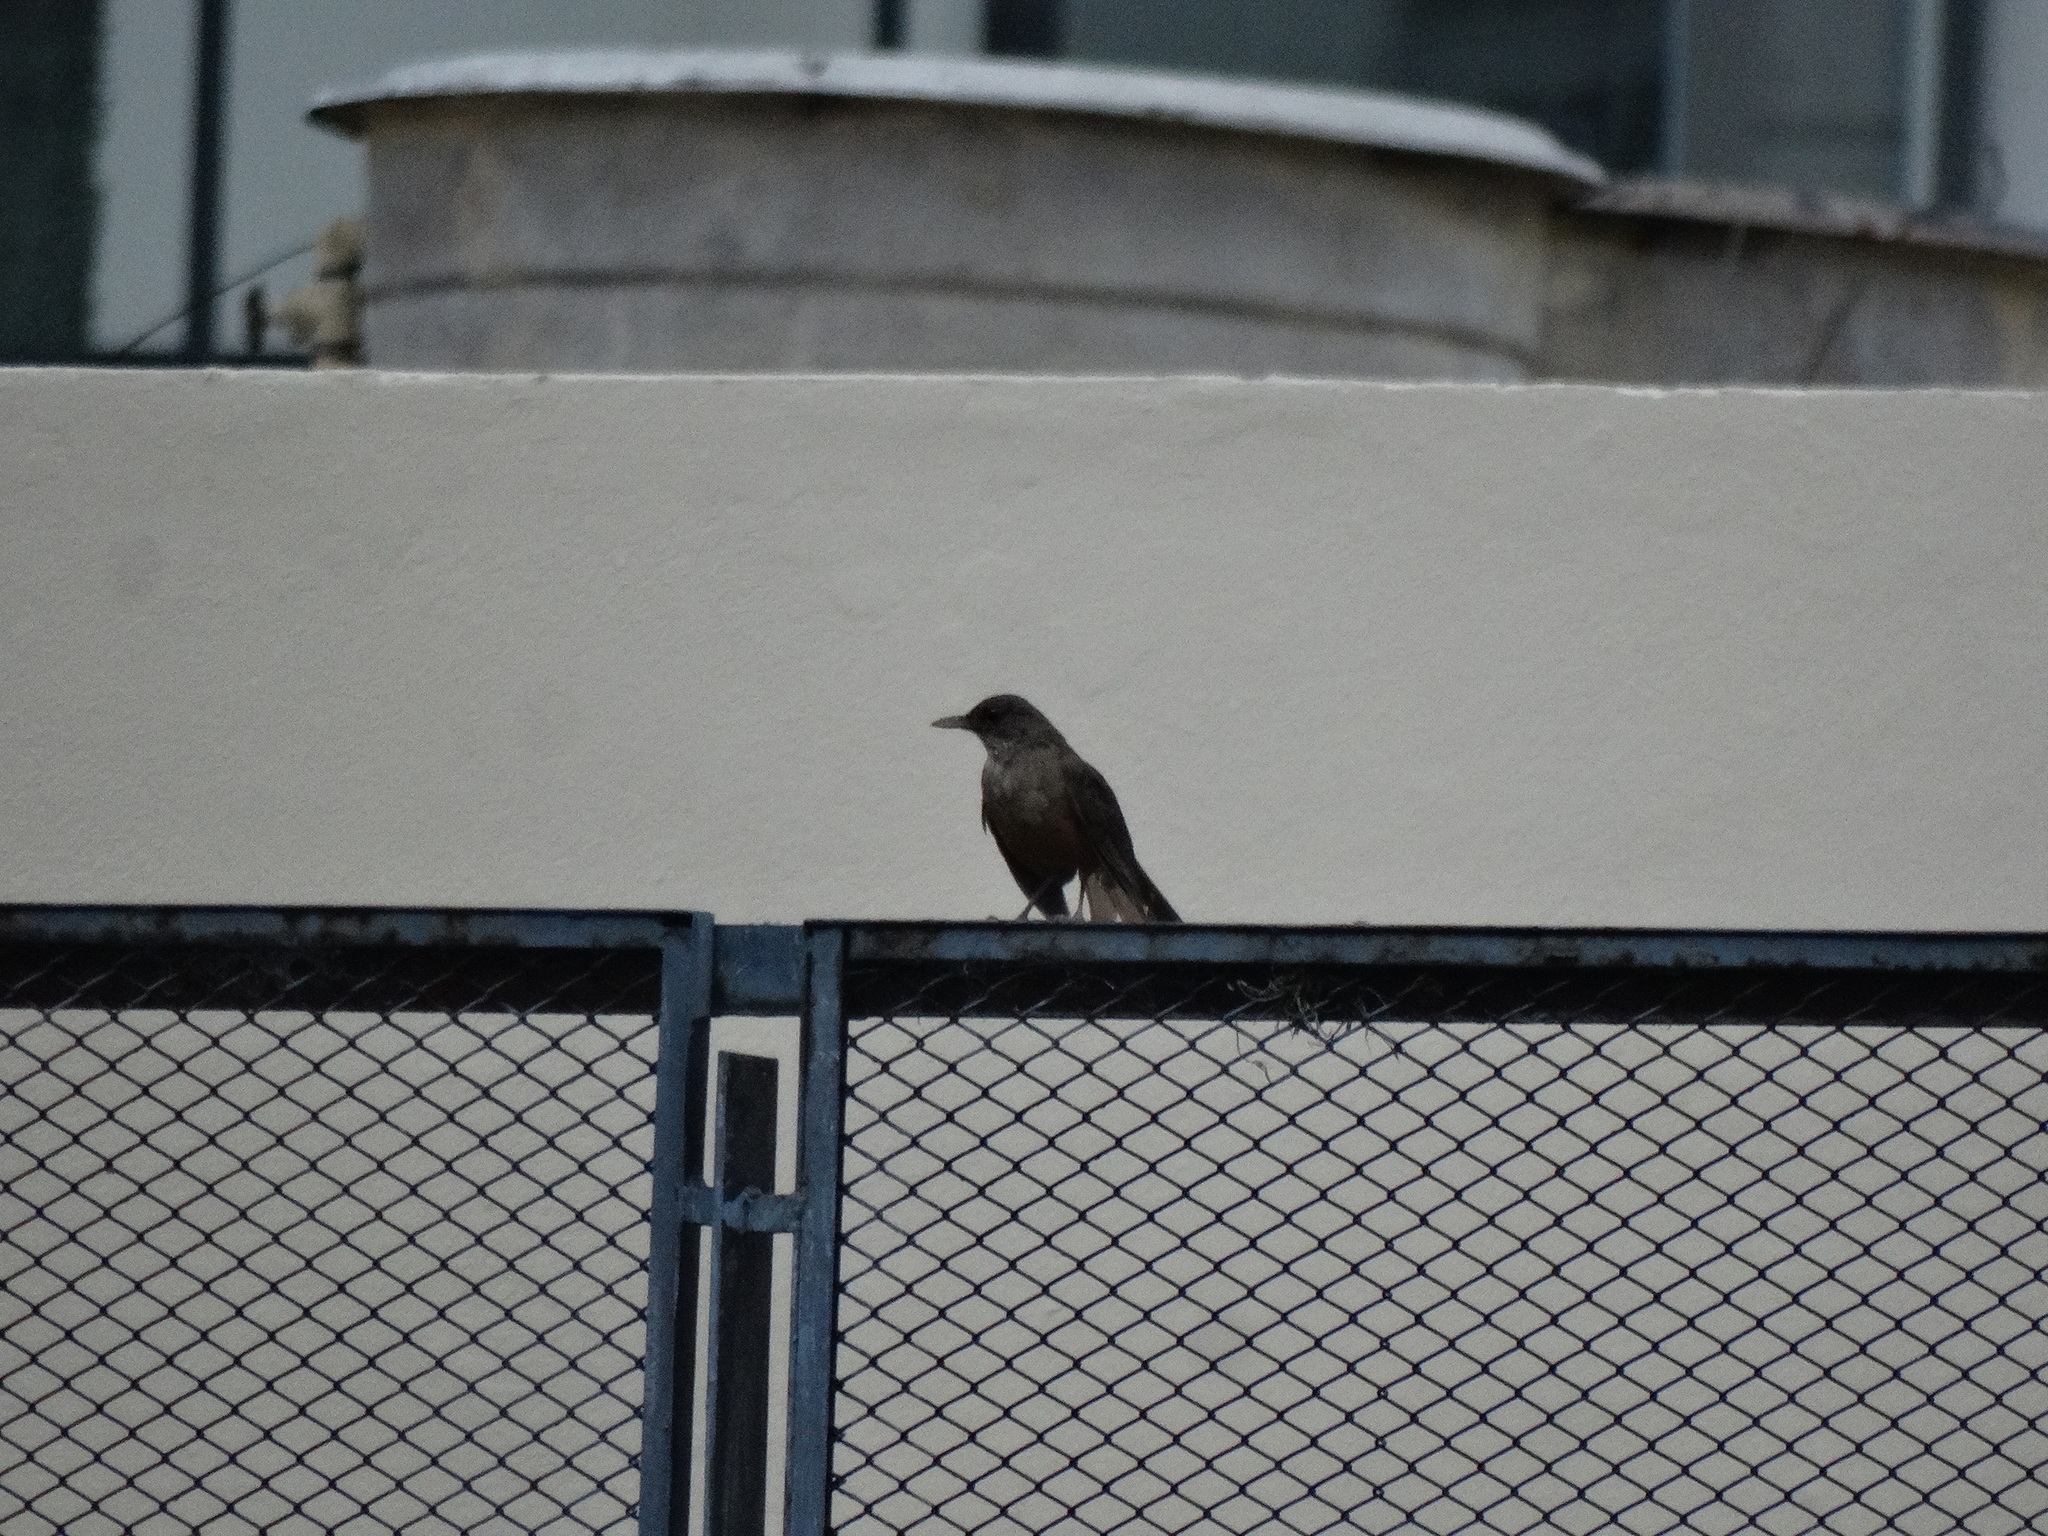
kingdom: Animalia
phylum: Chordata
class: Aves
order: Passeriformes
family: Turdidae
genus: Turdus
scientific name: Turdus rufiventris
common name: Rufous-bellied thrush
